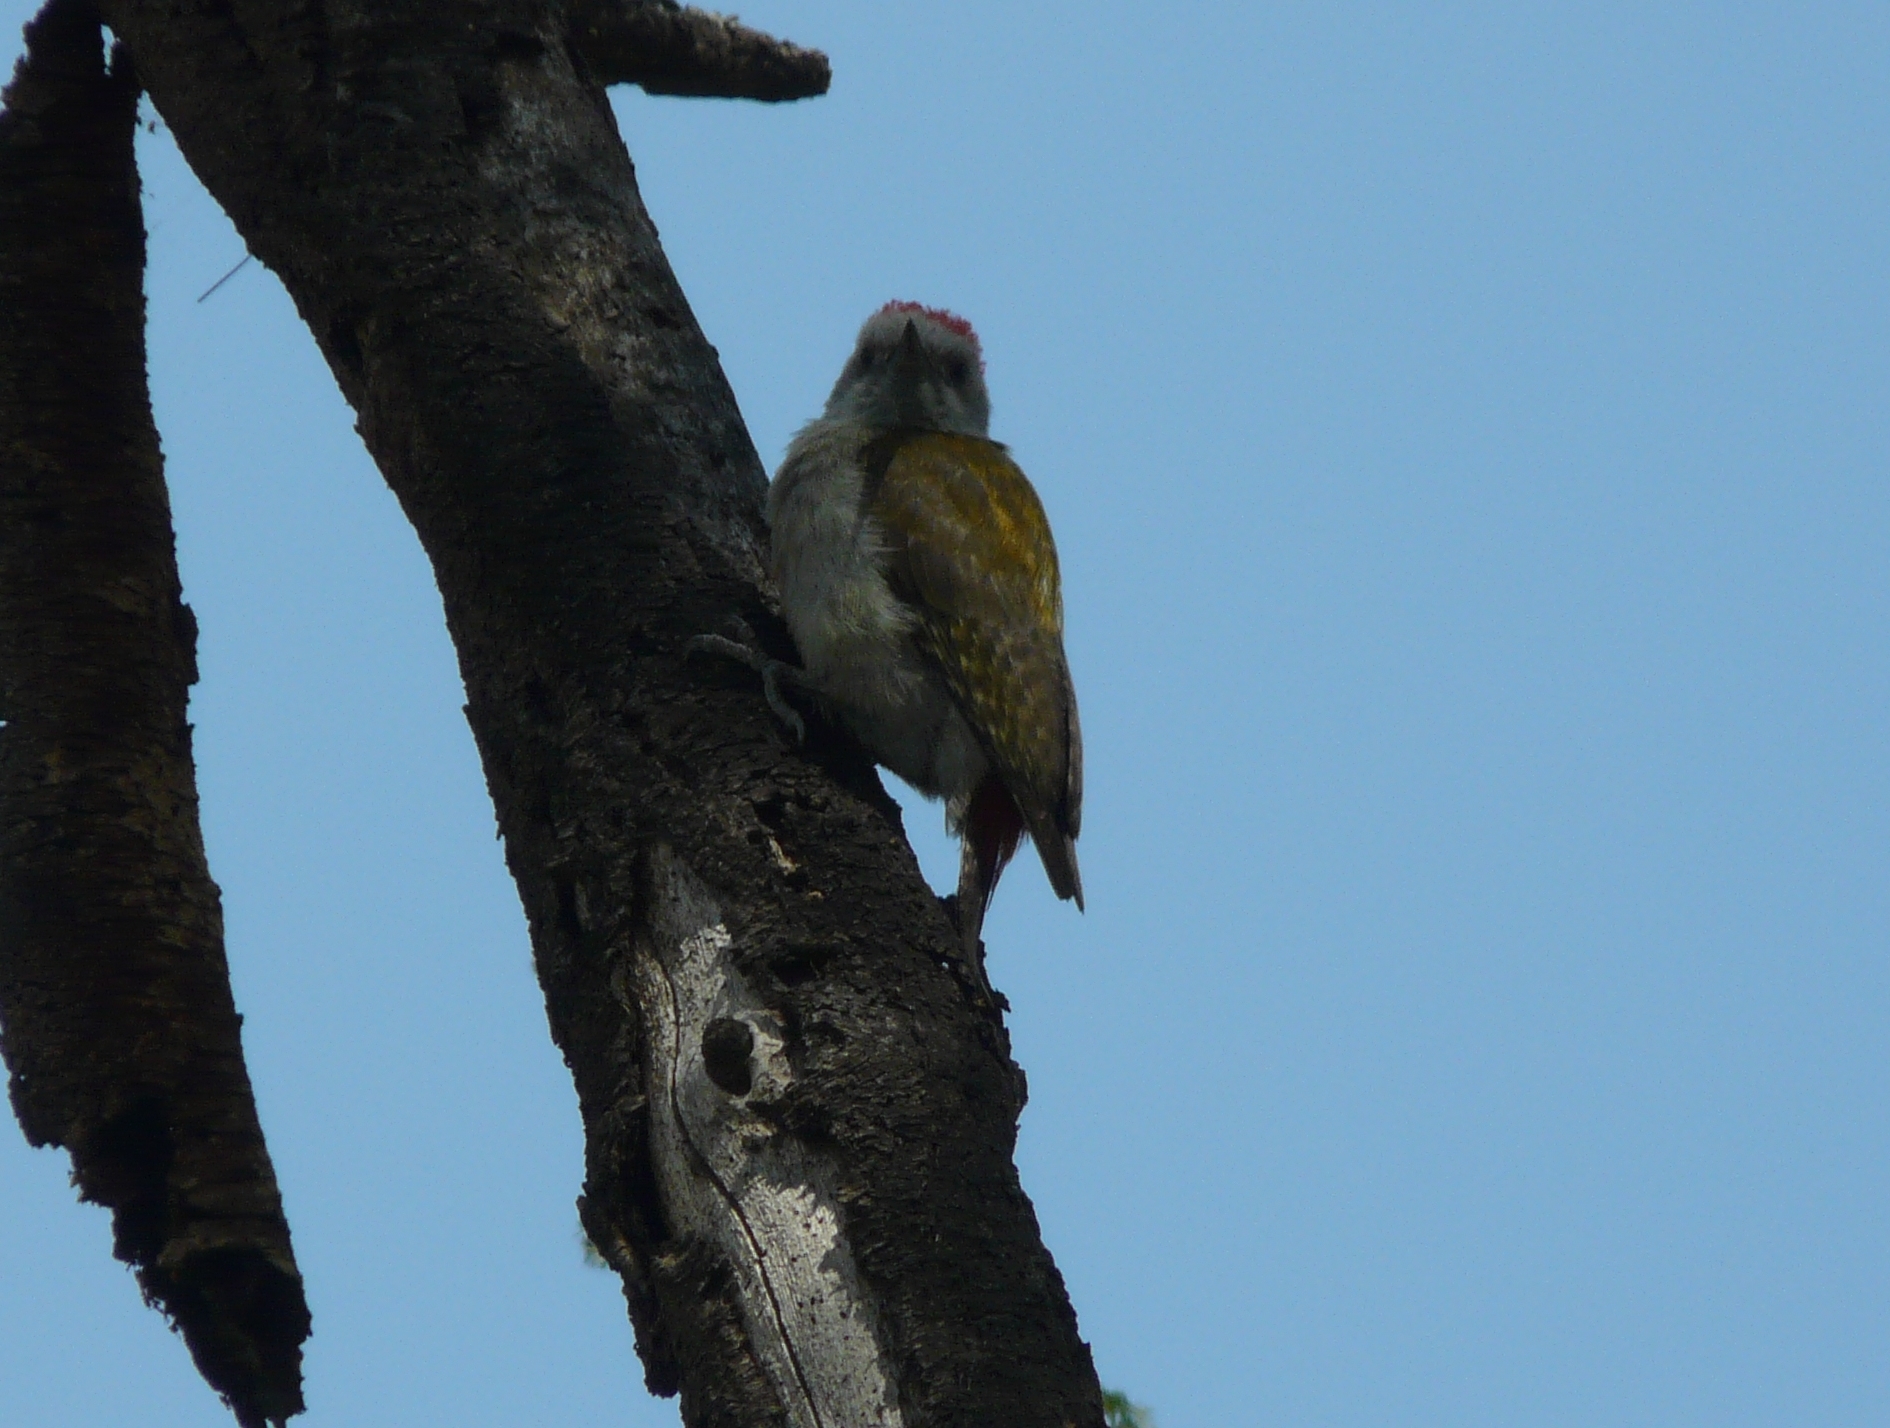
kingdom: Animalia
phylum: Chordata
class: Aves
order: Piciformes
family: Picidae
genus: Dendropicos
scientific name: Dendropicos goertae
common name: African grey woodpecker
